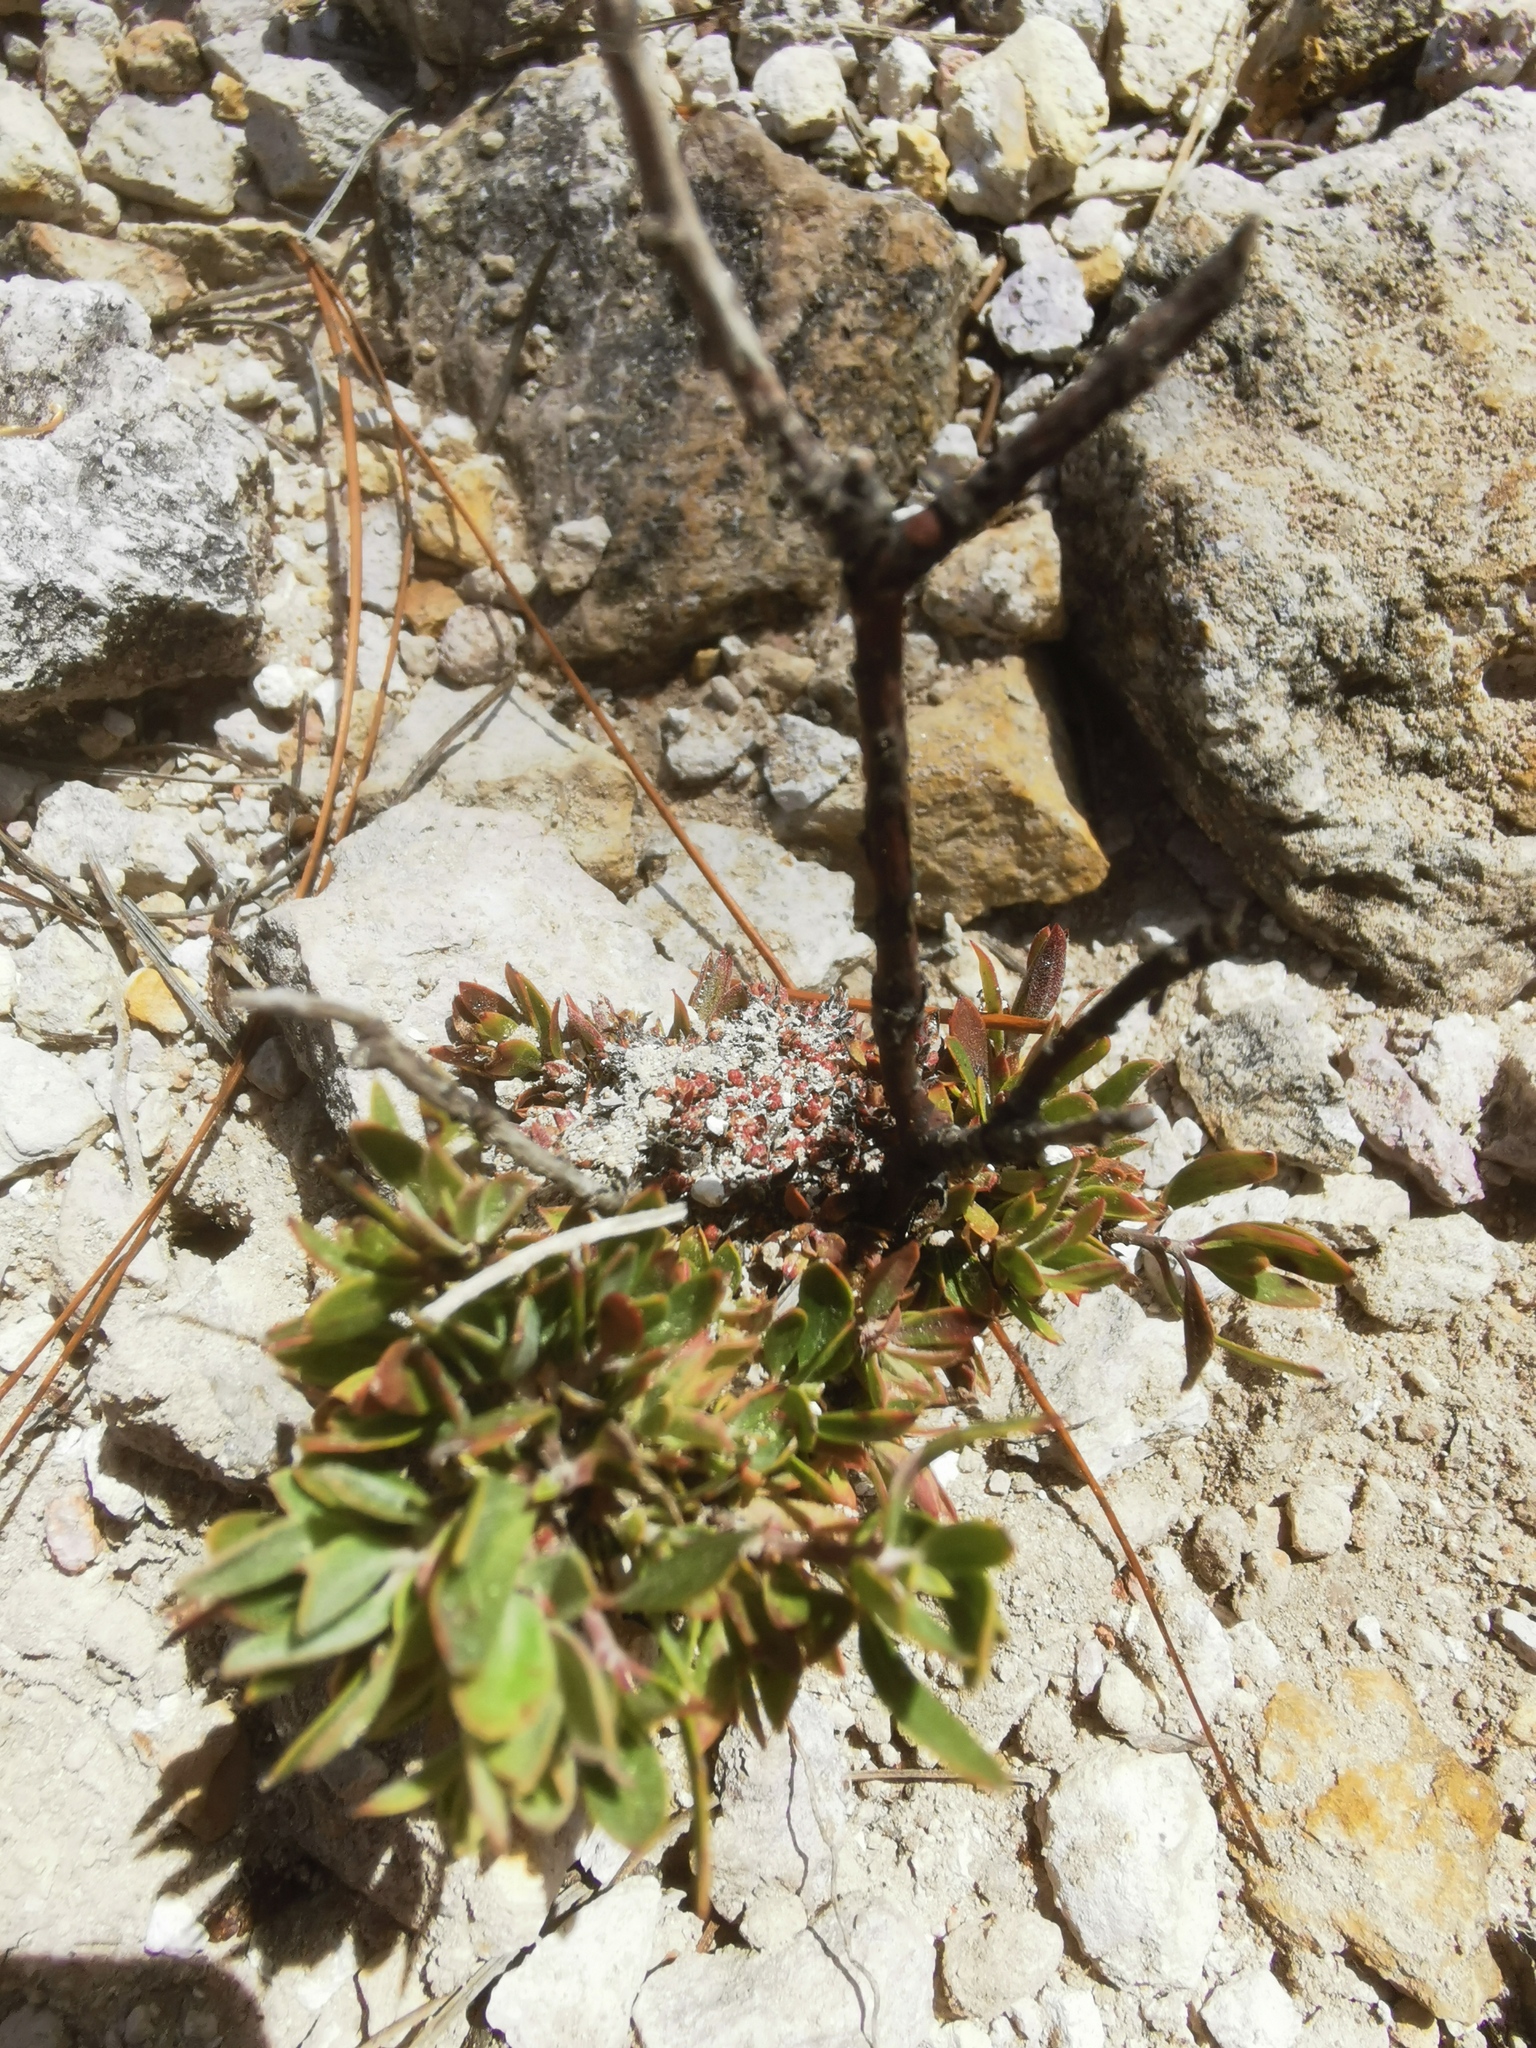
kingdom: Plantae
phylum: Tracheophyta
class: Magnoliopsida
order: Ericales
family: Ericaceae
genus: Arctostaphylos
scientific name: Arctostaphylos pungens
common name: Mexican manzanita
